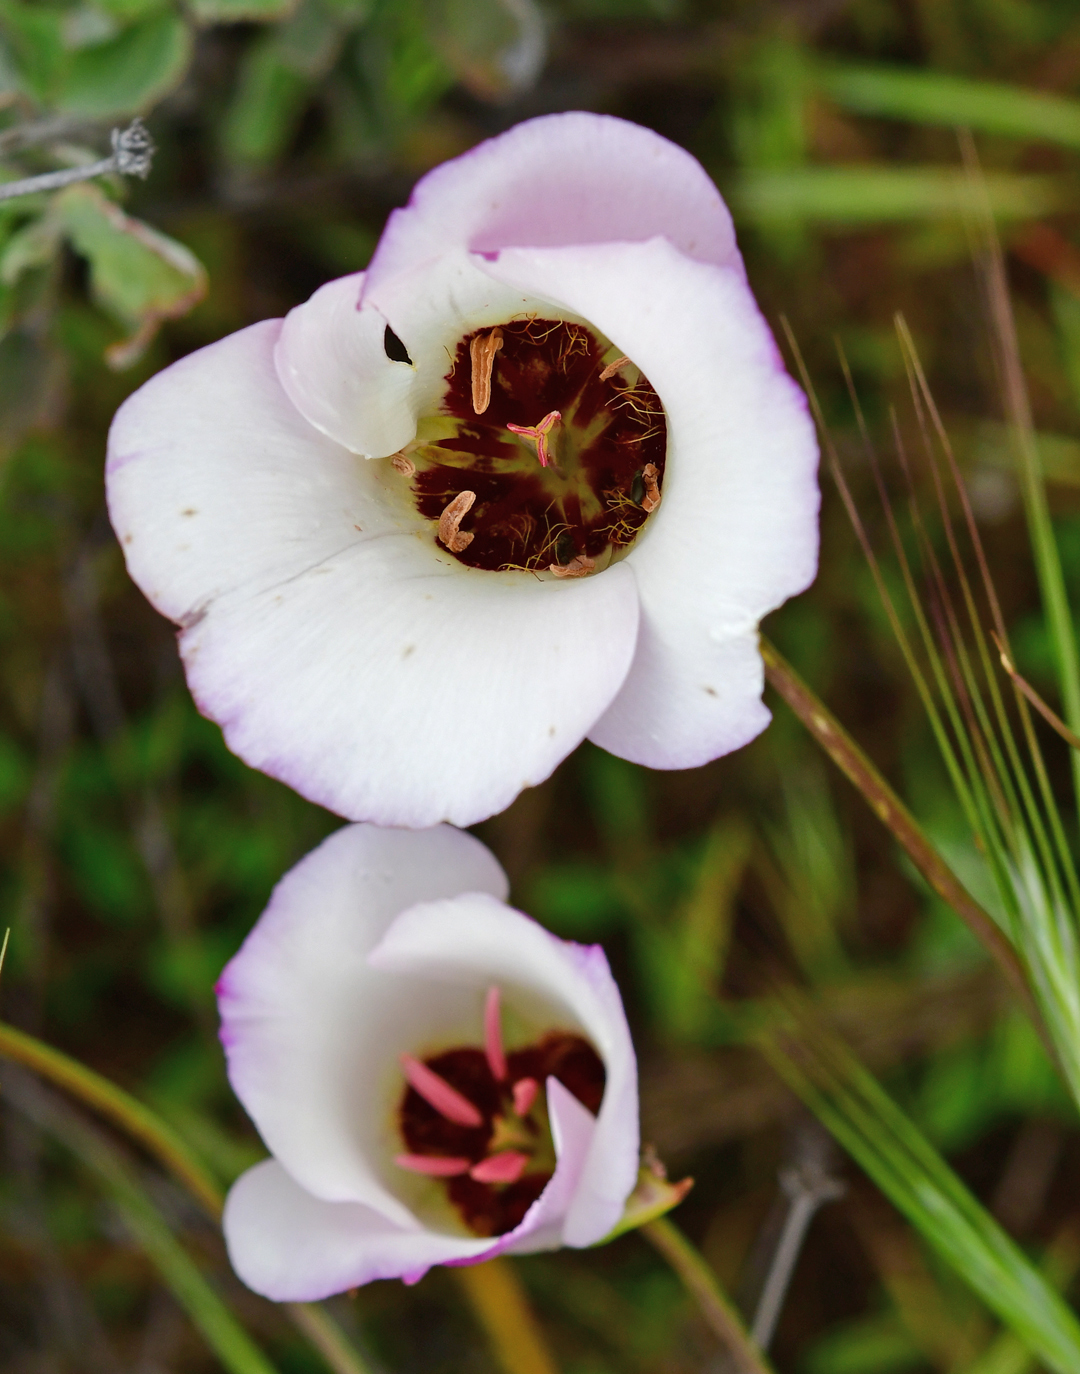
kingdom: Plantae
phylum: Tracheophyta
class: Liliopsida
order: Liliales
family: Liliaceae
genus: Calochortus
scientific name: Calochortus catalinae
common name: Catalina mariposa-lily
